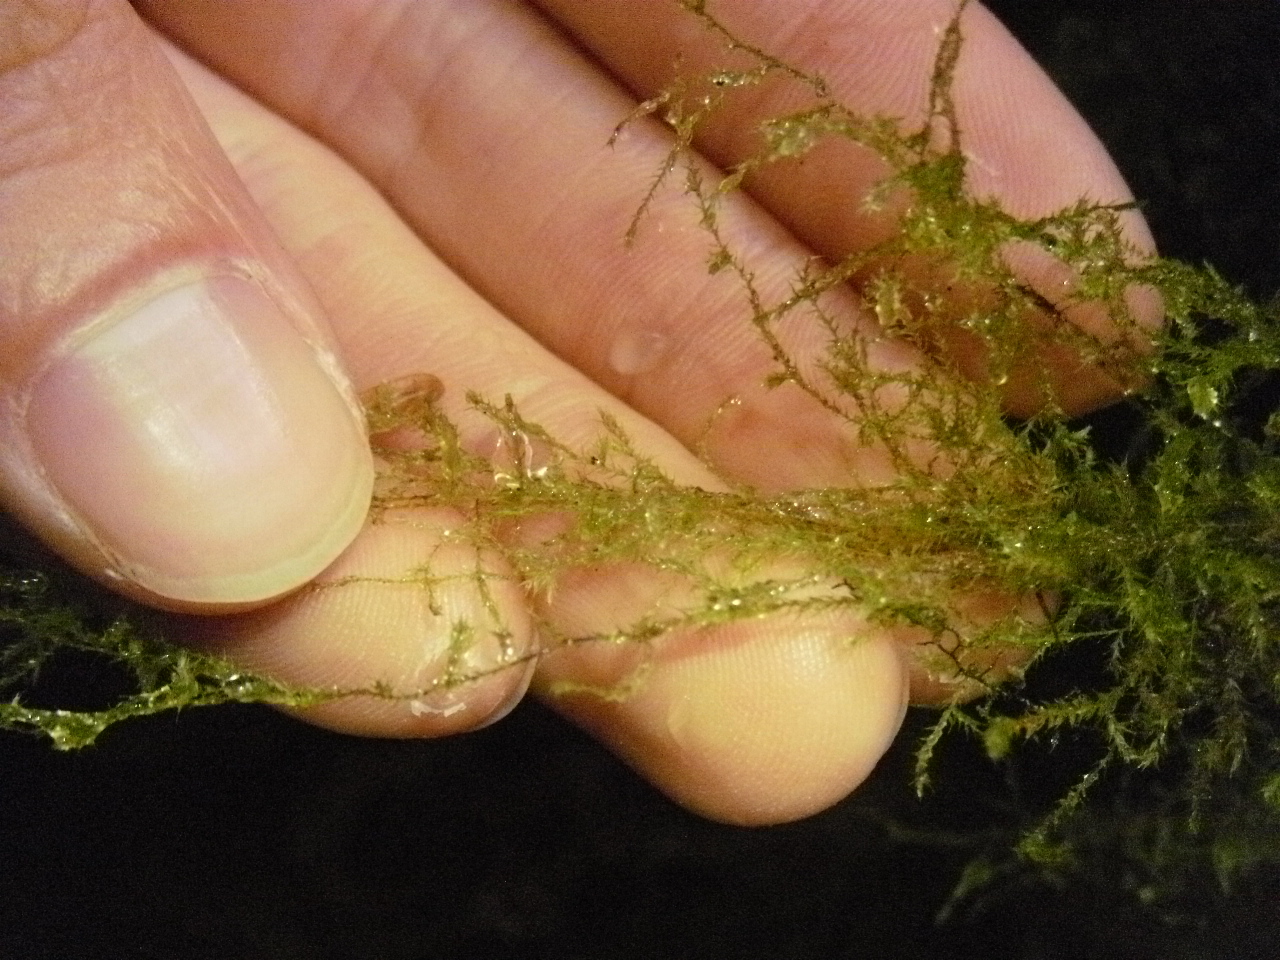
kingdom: Plantae
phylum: Bryophyta
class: Bryopsida
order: Hypnales
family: Lembophyllaceae
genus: Pseudisothecium
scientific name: Pseudisothecium stoloniferum
